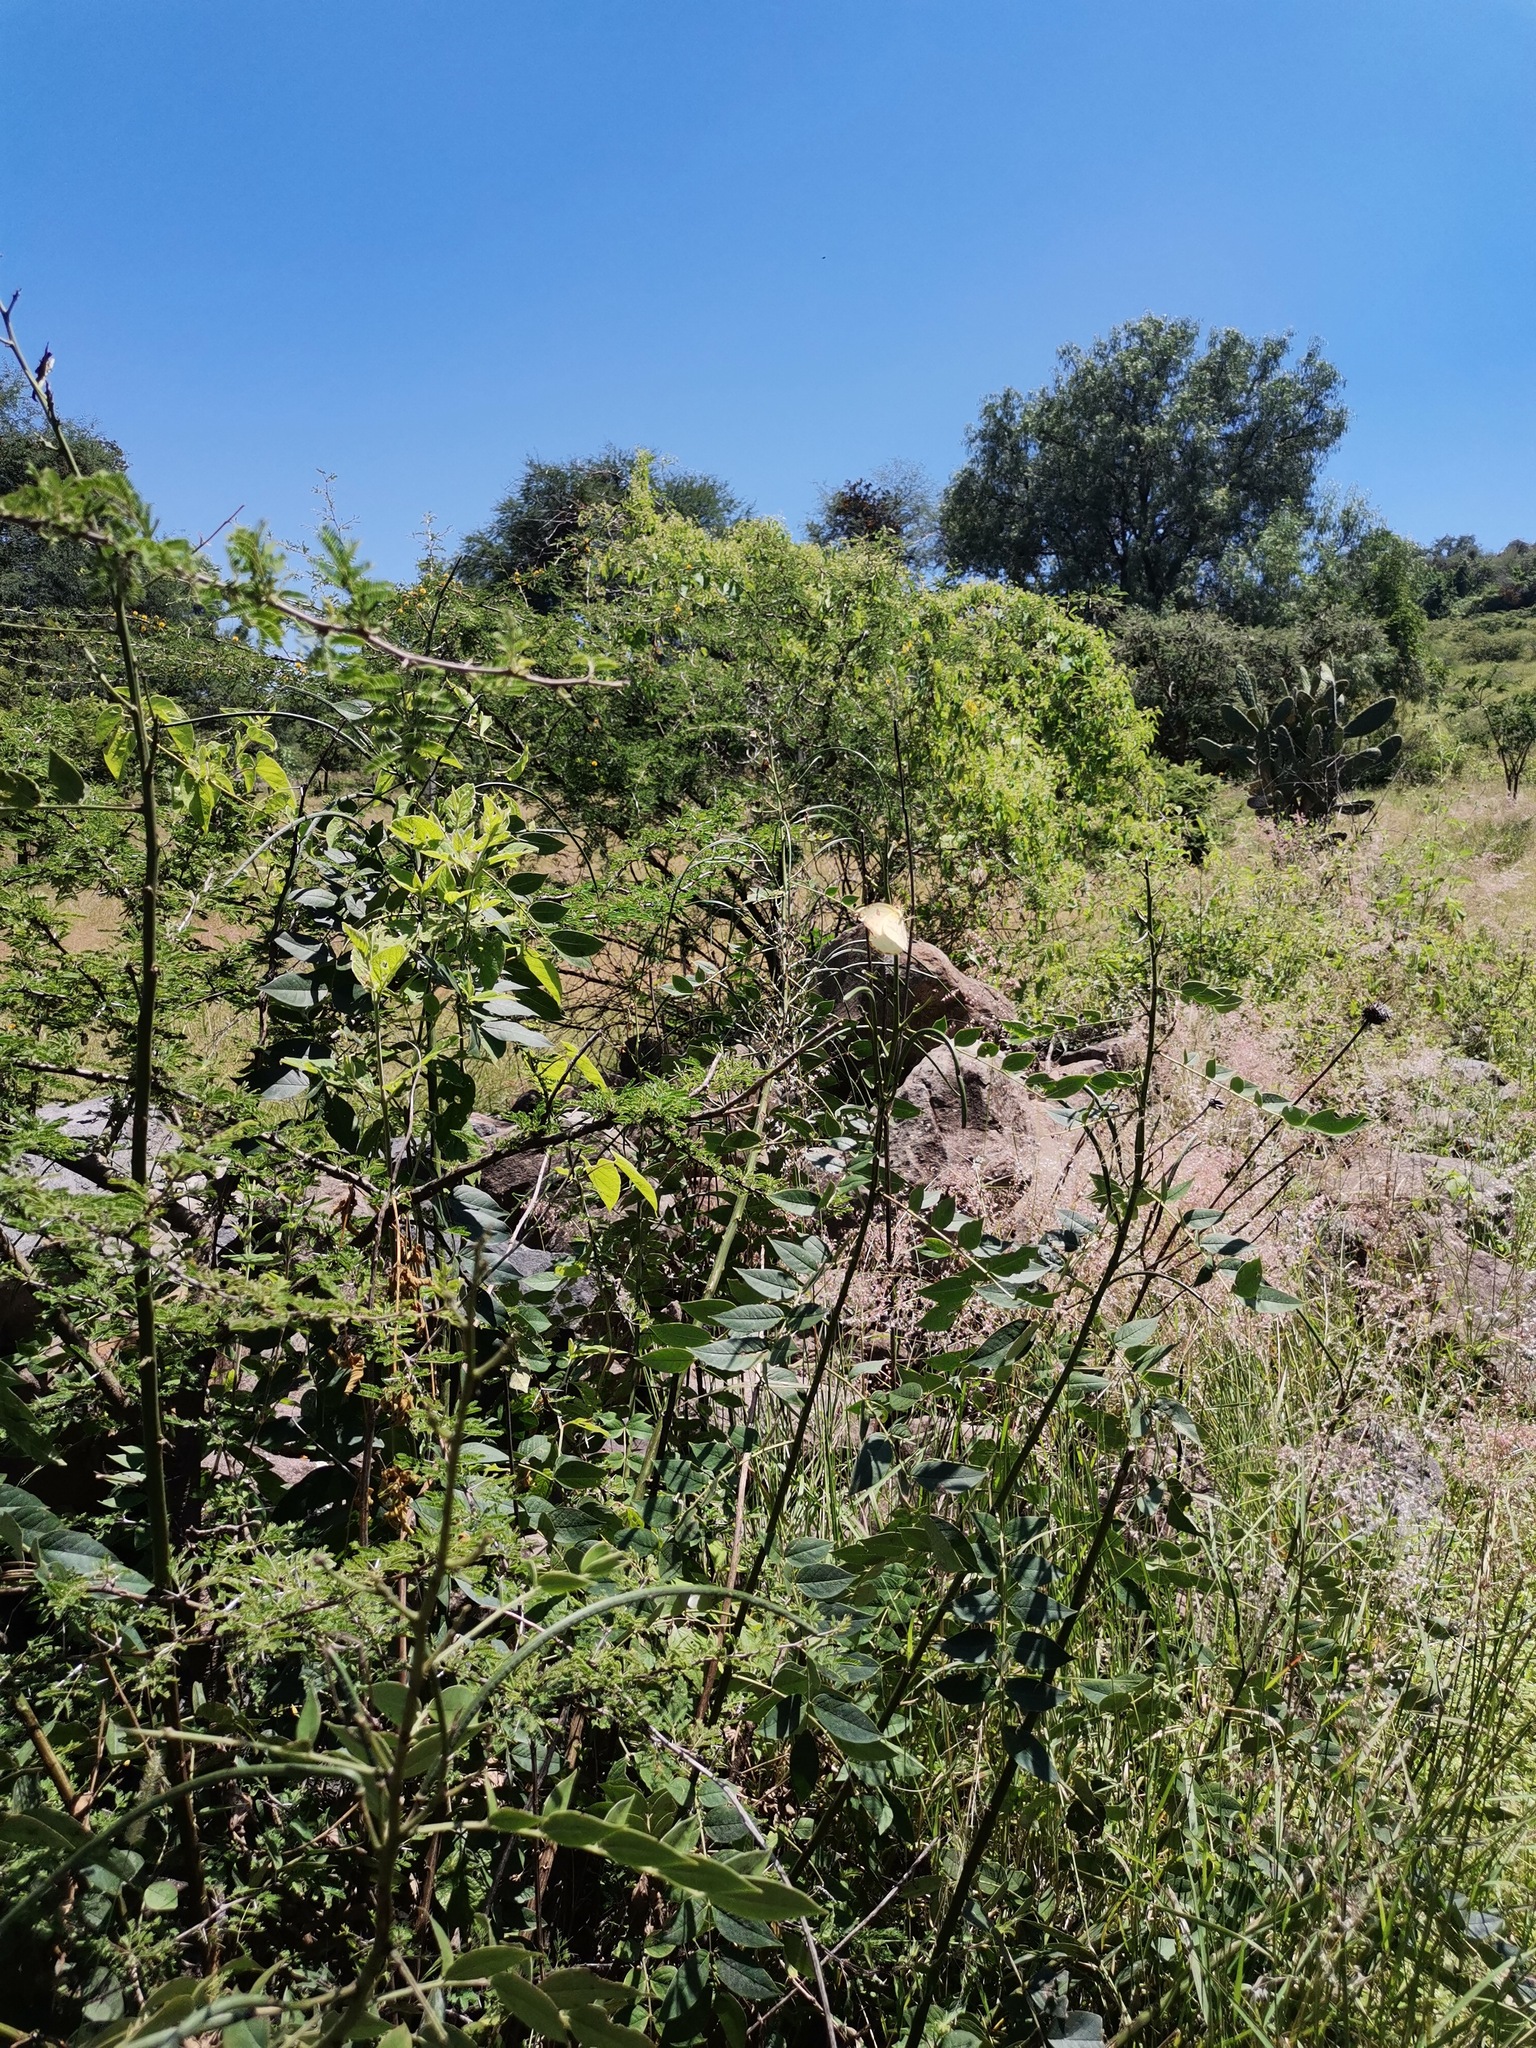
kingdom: Plantae
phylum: Tracheophyta
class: Magnoliopsida
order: Fabales
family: Fabaceae
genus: Senna
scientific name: Senna hirsuta
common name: Woolly senna
